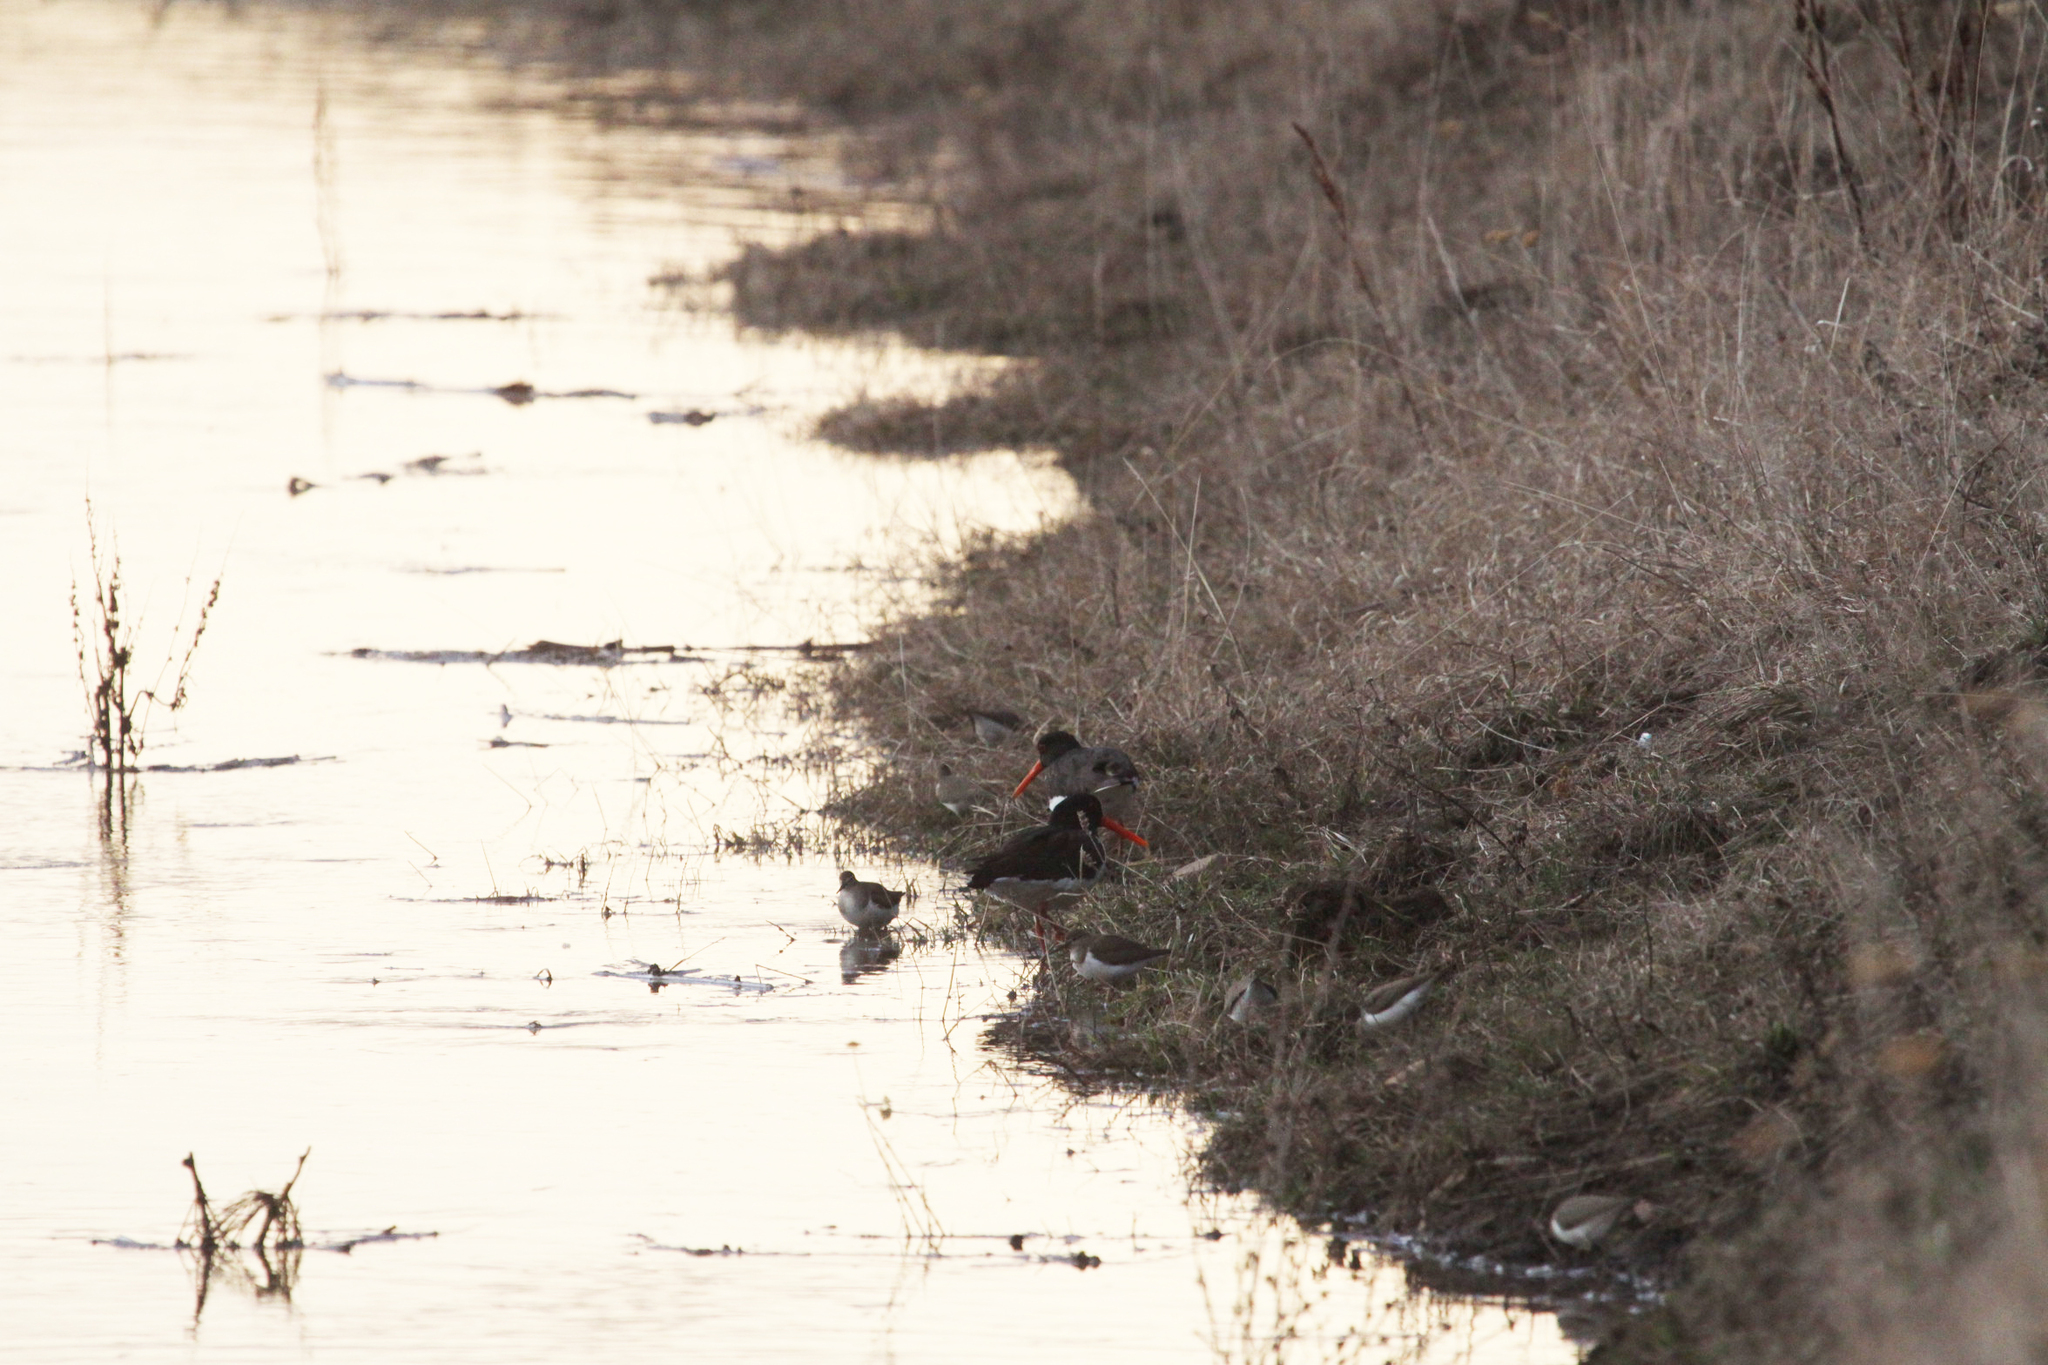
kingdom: Animalia
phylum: Chordata
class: Aves
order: Charadriiformes
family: Scolopacidae
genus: Actitis
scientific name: Actitis hypoleucos
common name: Common sandpiper
